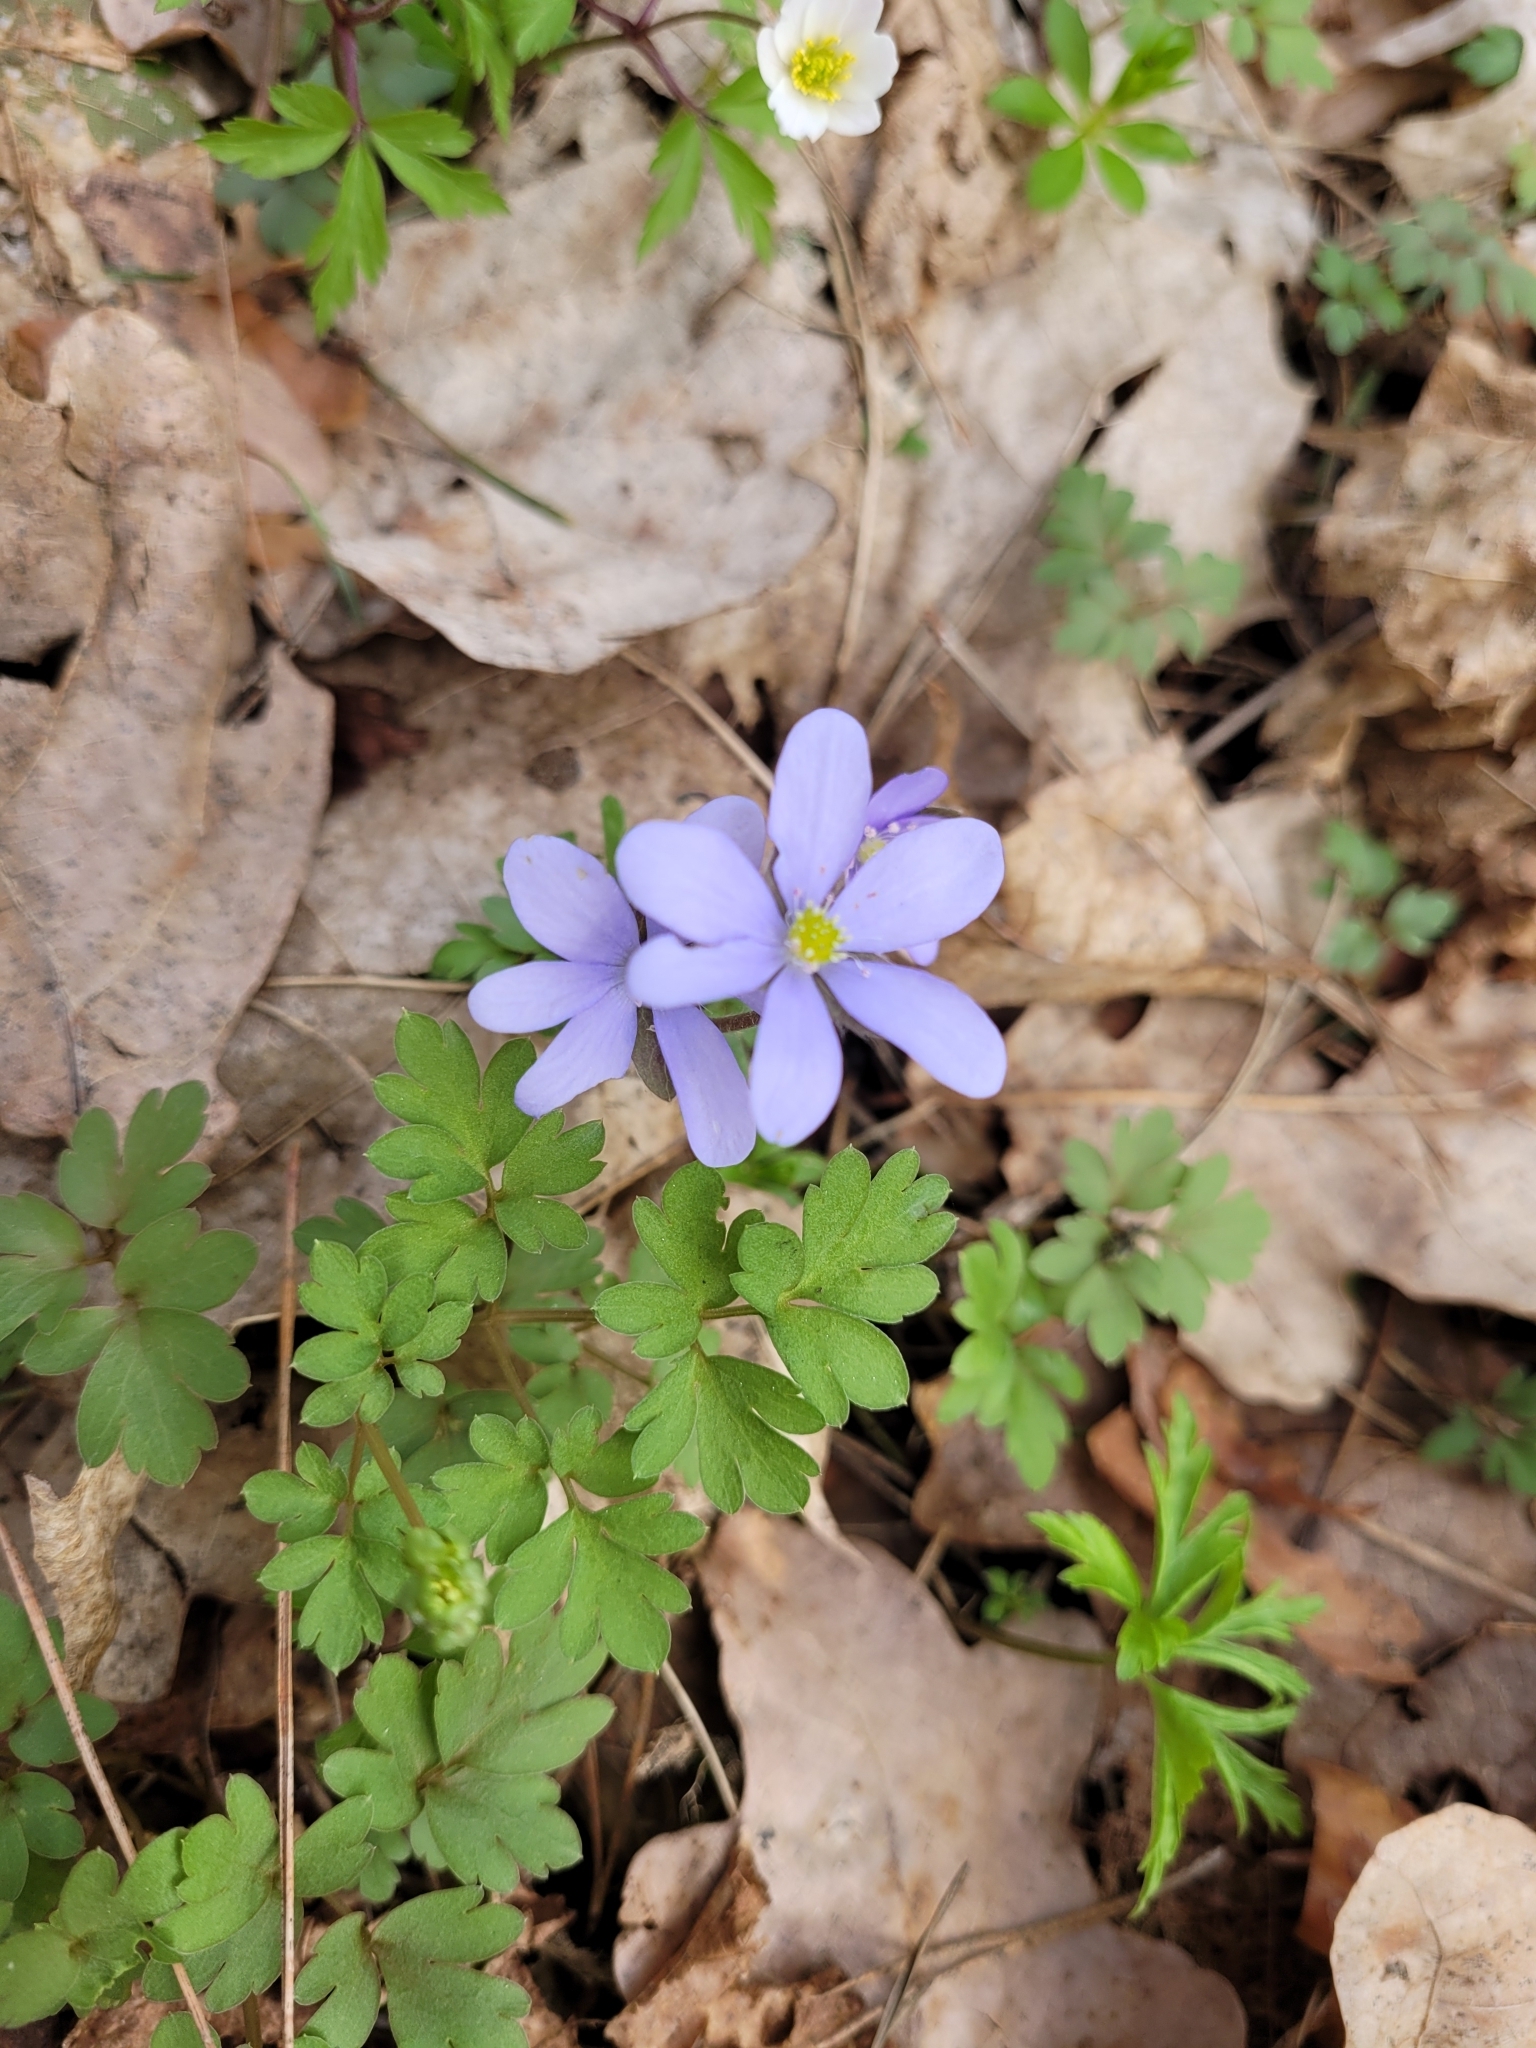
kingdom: Plantae
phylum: Tracheophyta
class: Magnoliopsida
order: Ranunculales
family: Ranunculaceae
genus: Hepatica
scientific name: Hepatica nobilis
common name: Liverleaf
